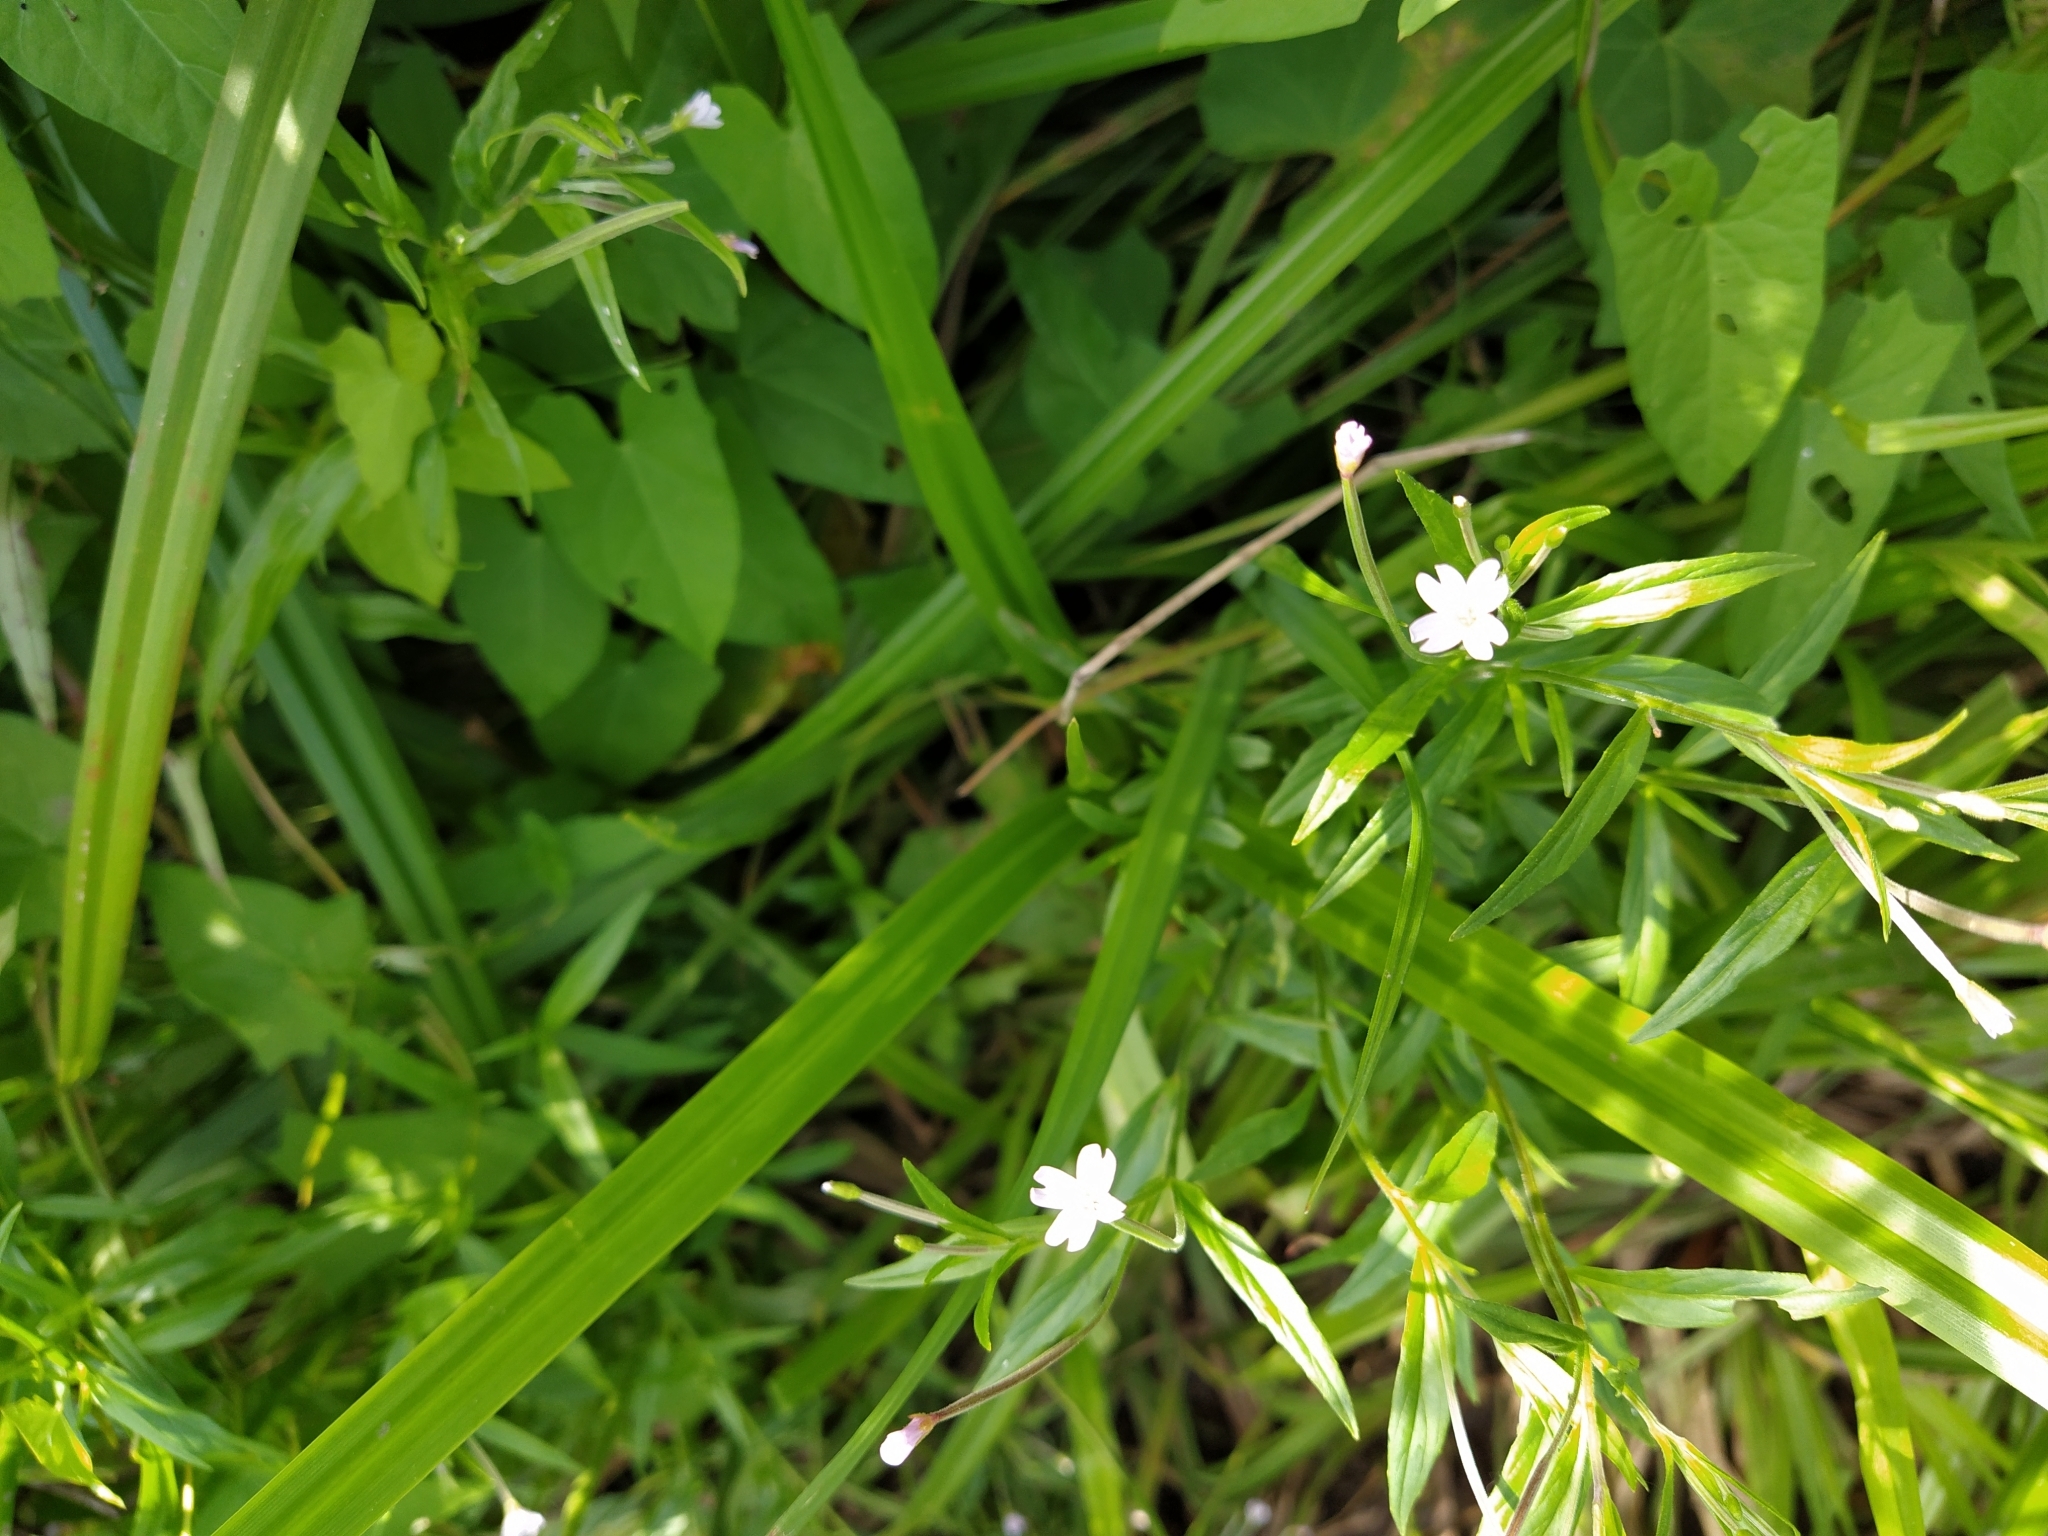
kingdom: Plantae
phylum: Tracheophyta
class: Magnoliopsida
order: Myrtales
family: Onagraceae
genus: Epilobium
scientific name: Epilobium palustre
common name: Marsh willowherb
